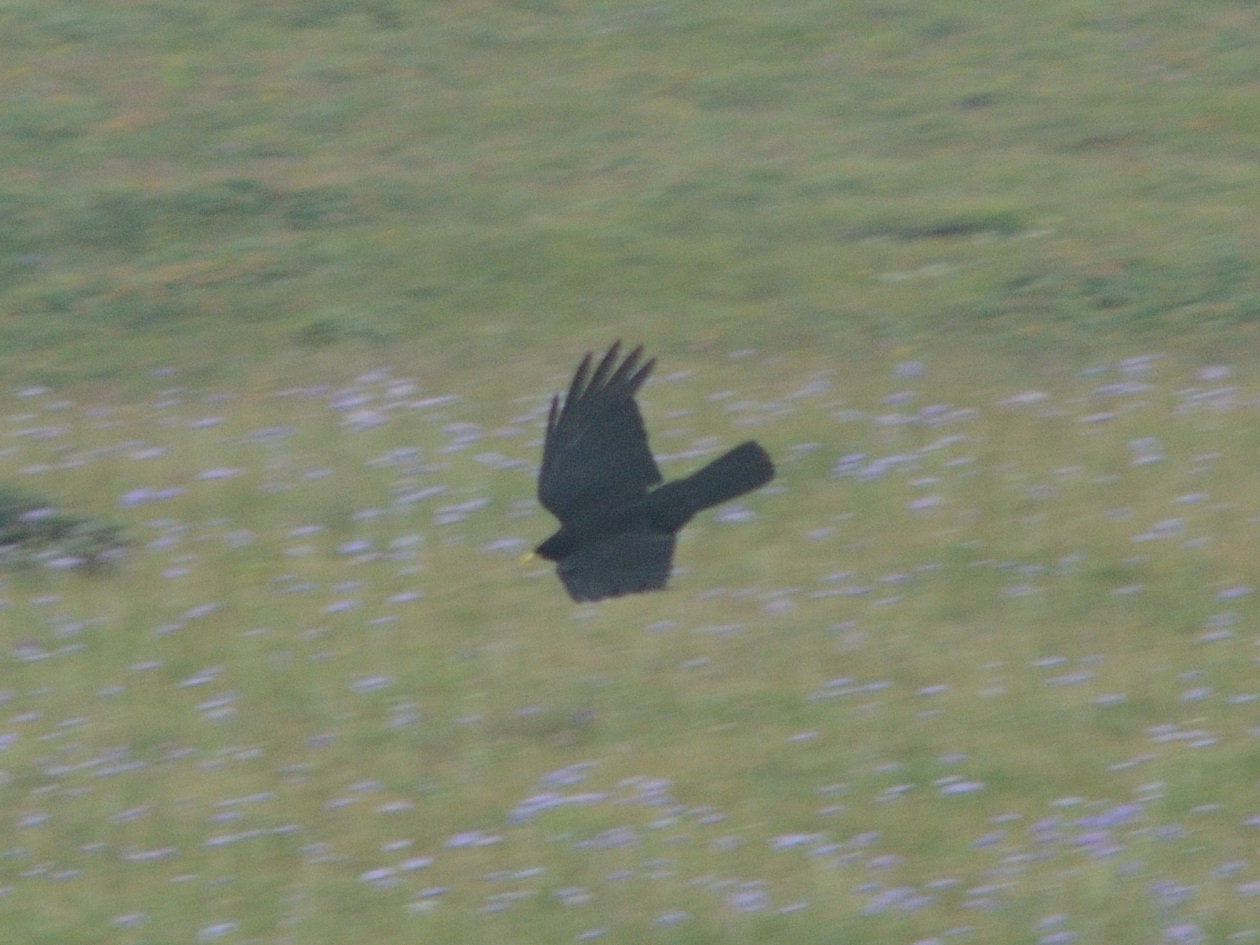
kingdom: Animalia
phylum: Chordata
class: Aves
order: Passeriformes
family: Corvidae
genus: Pyrrhocorax
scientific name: Pyrrhocorax graculus
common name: Alpine chough
